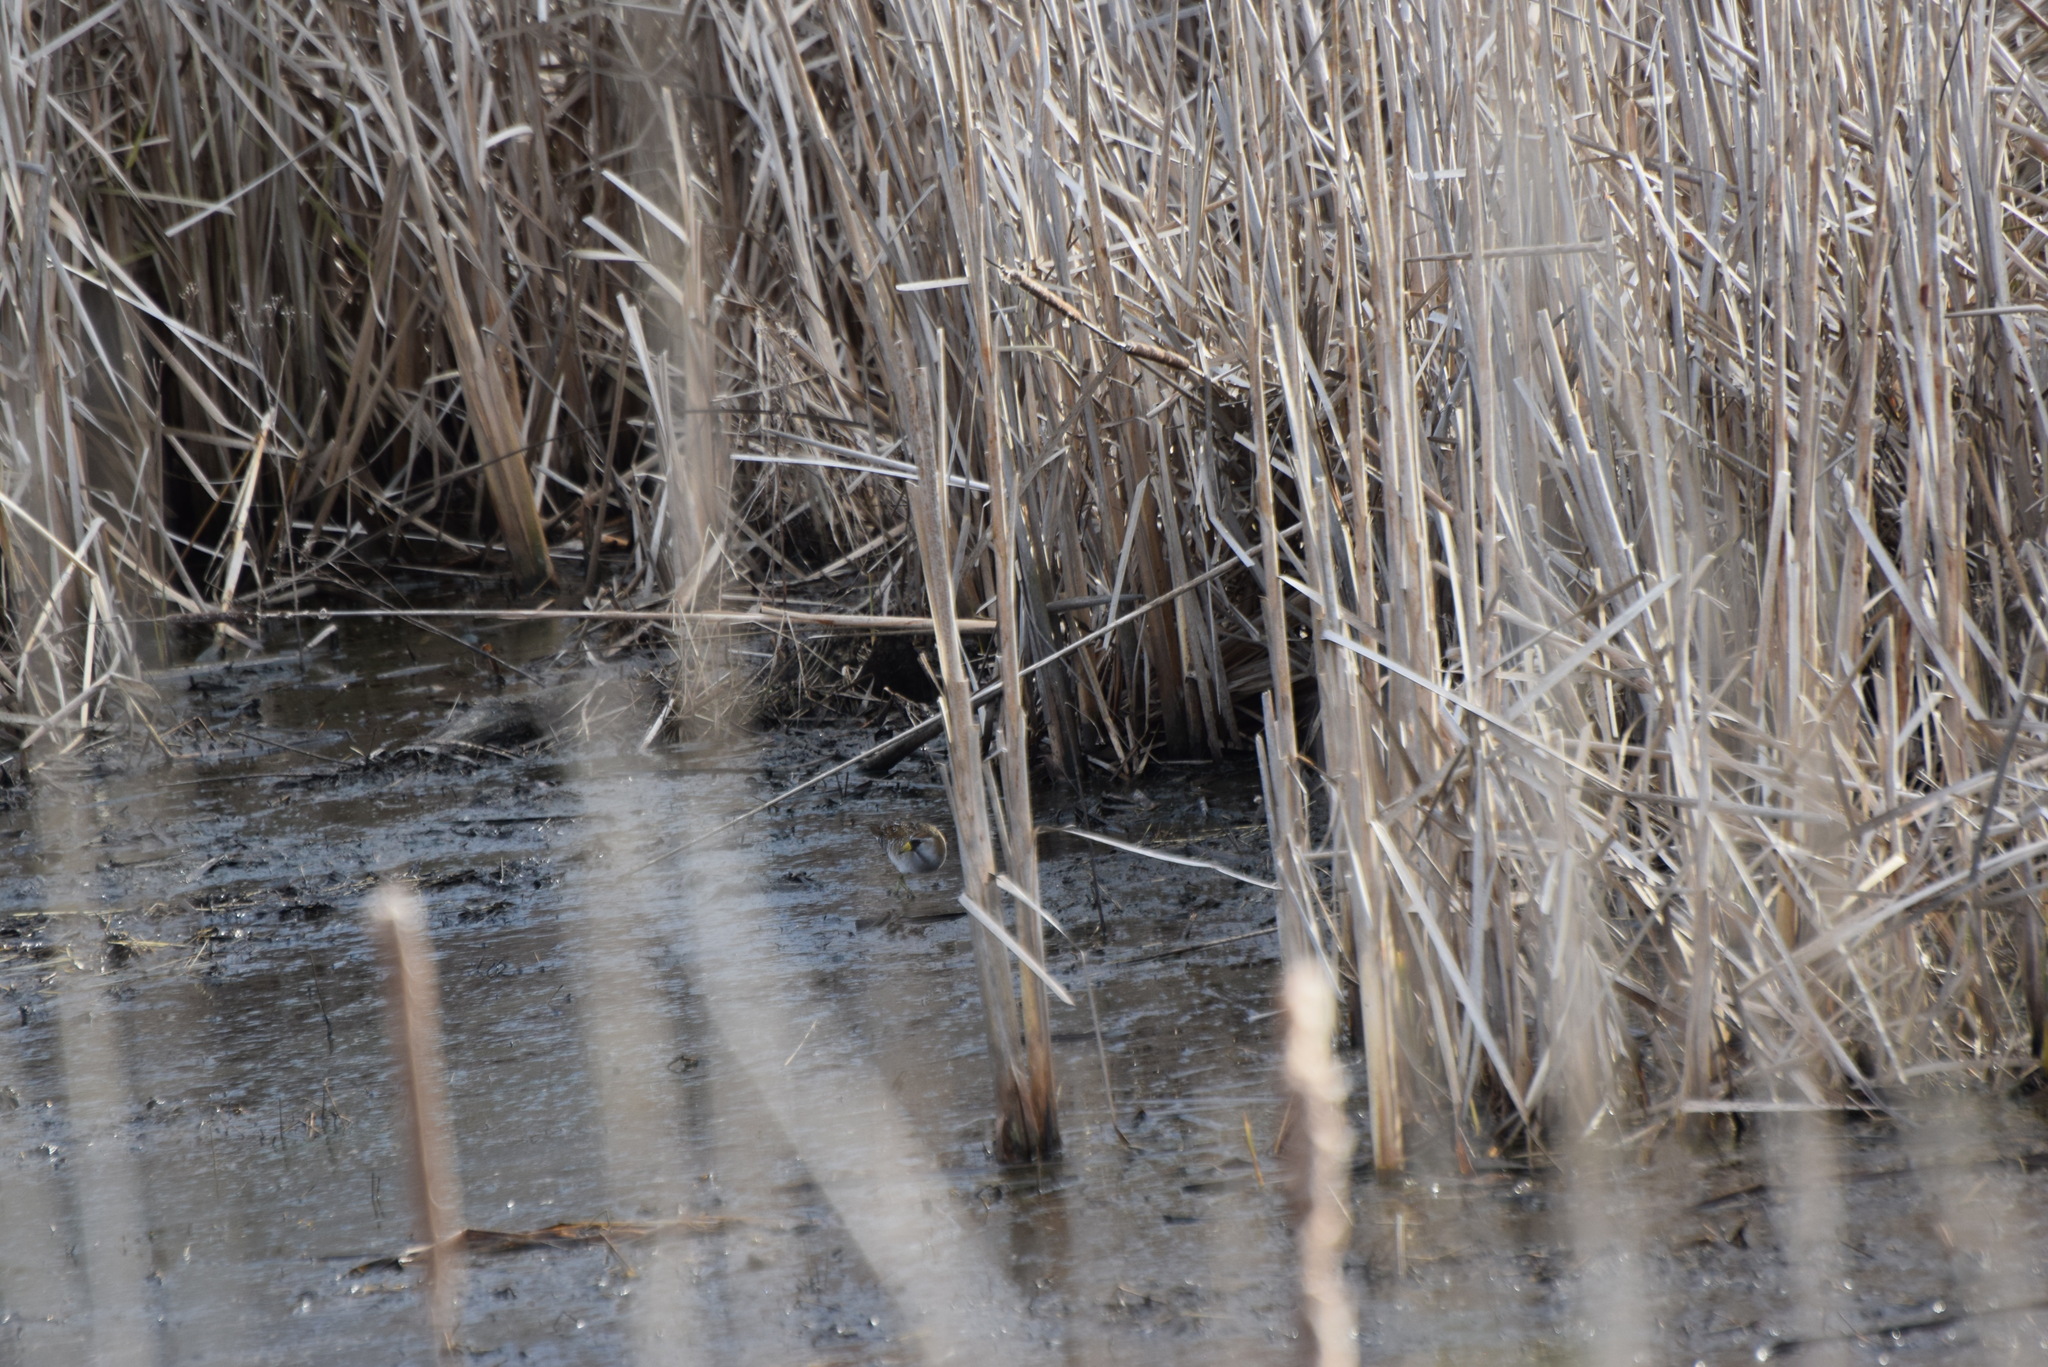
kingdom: Animalia
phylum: Chordata
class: Aves
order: Gruiformes
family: Rallidae
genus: Porzana
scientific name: Porzana carolina
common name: Sora
